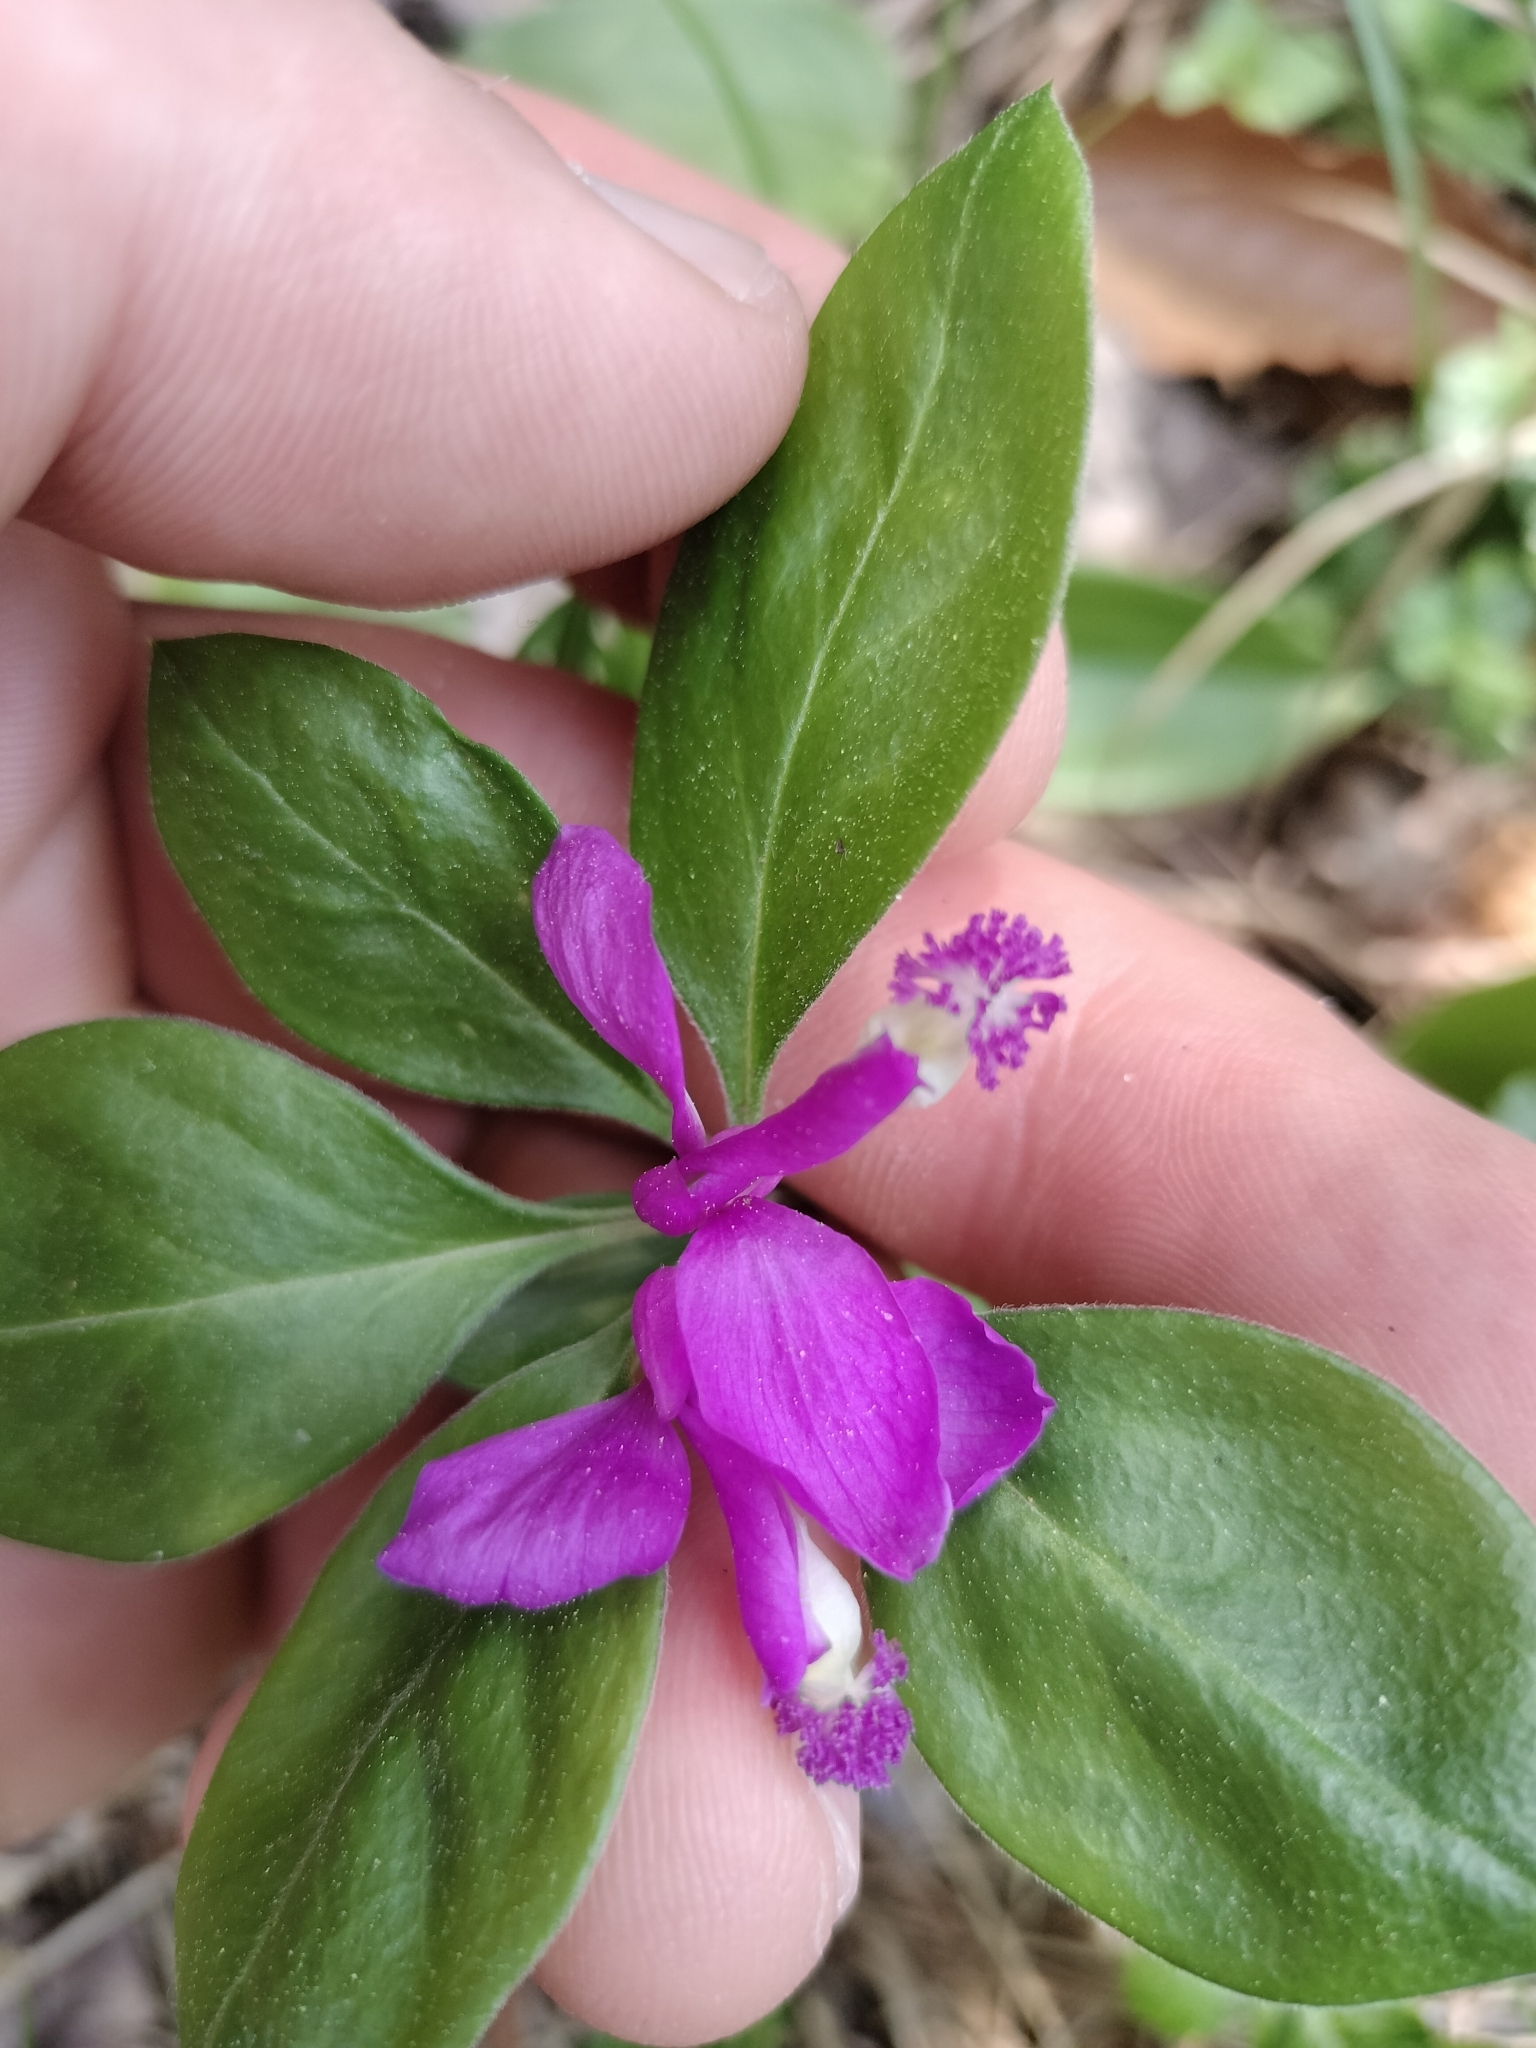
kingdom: Plantae
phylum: Tracheophyta
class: Magnoliopsida
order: Fabales
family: Polygalaceae
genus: Polygaloides
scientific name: Polygaloides paucifolia
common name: Bird-on-the-wing
